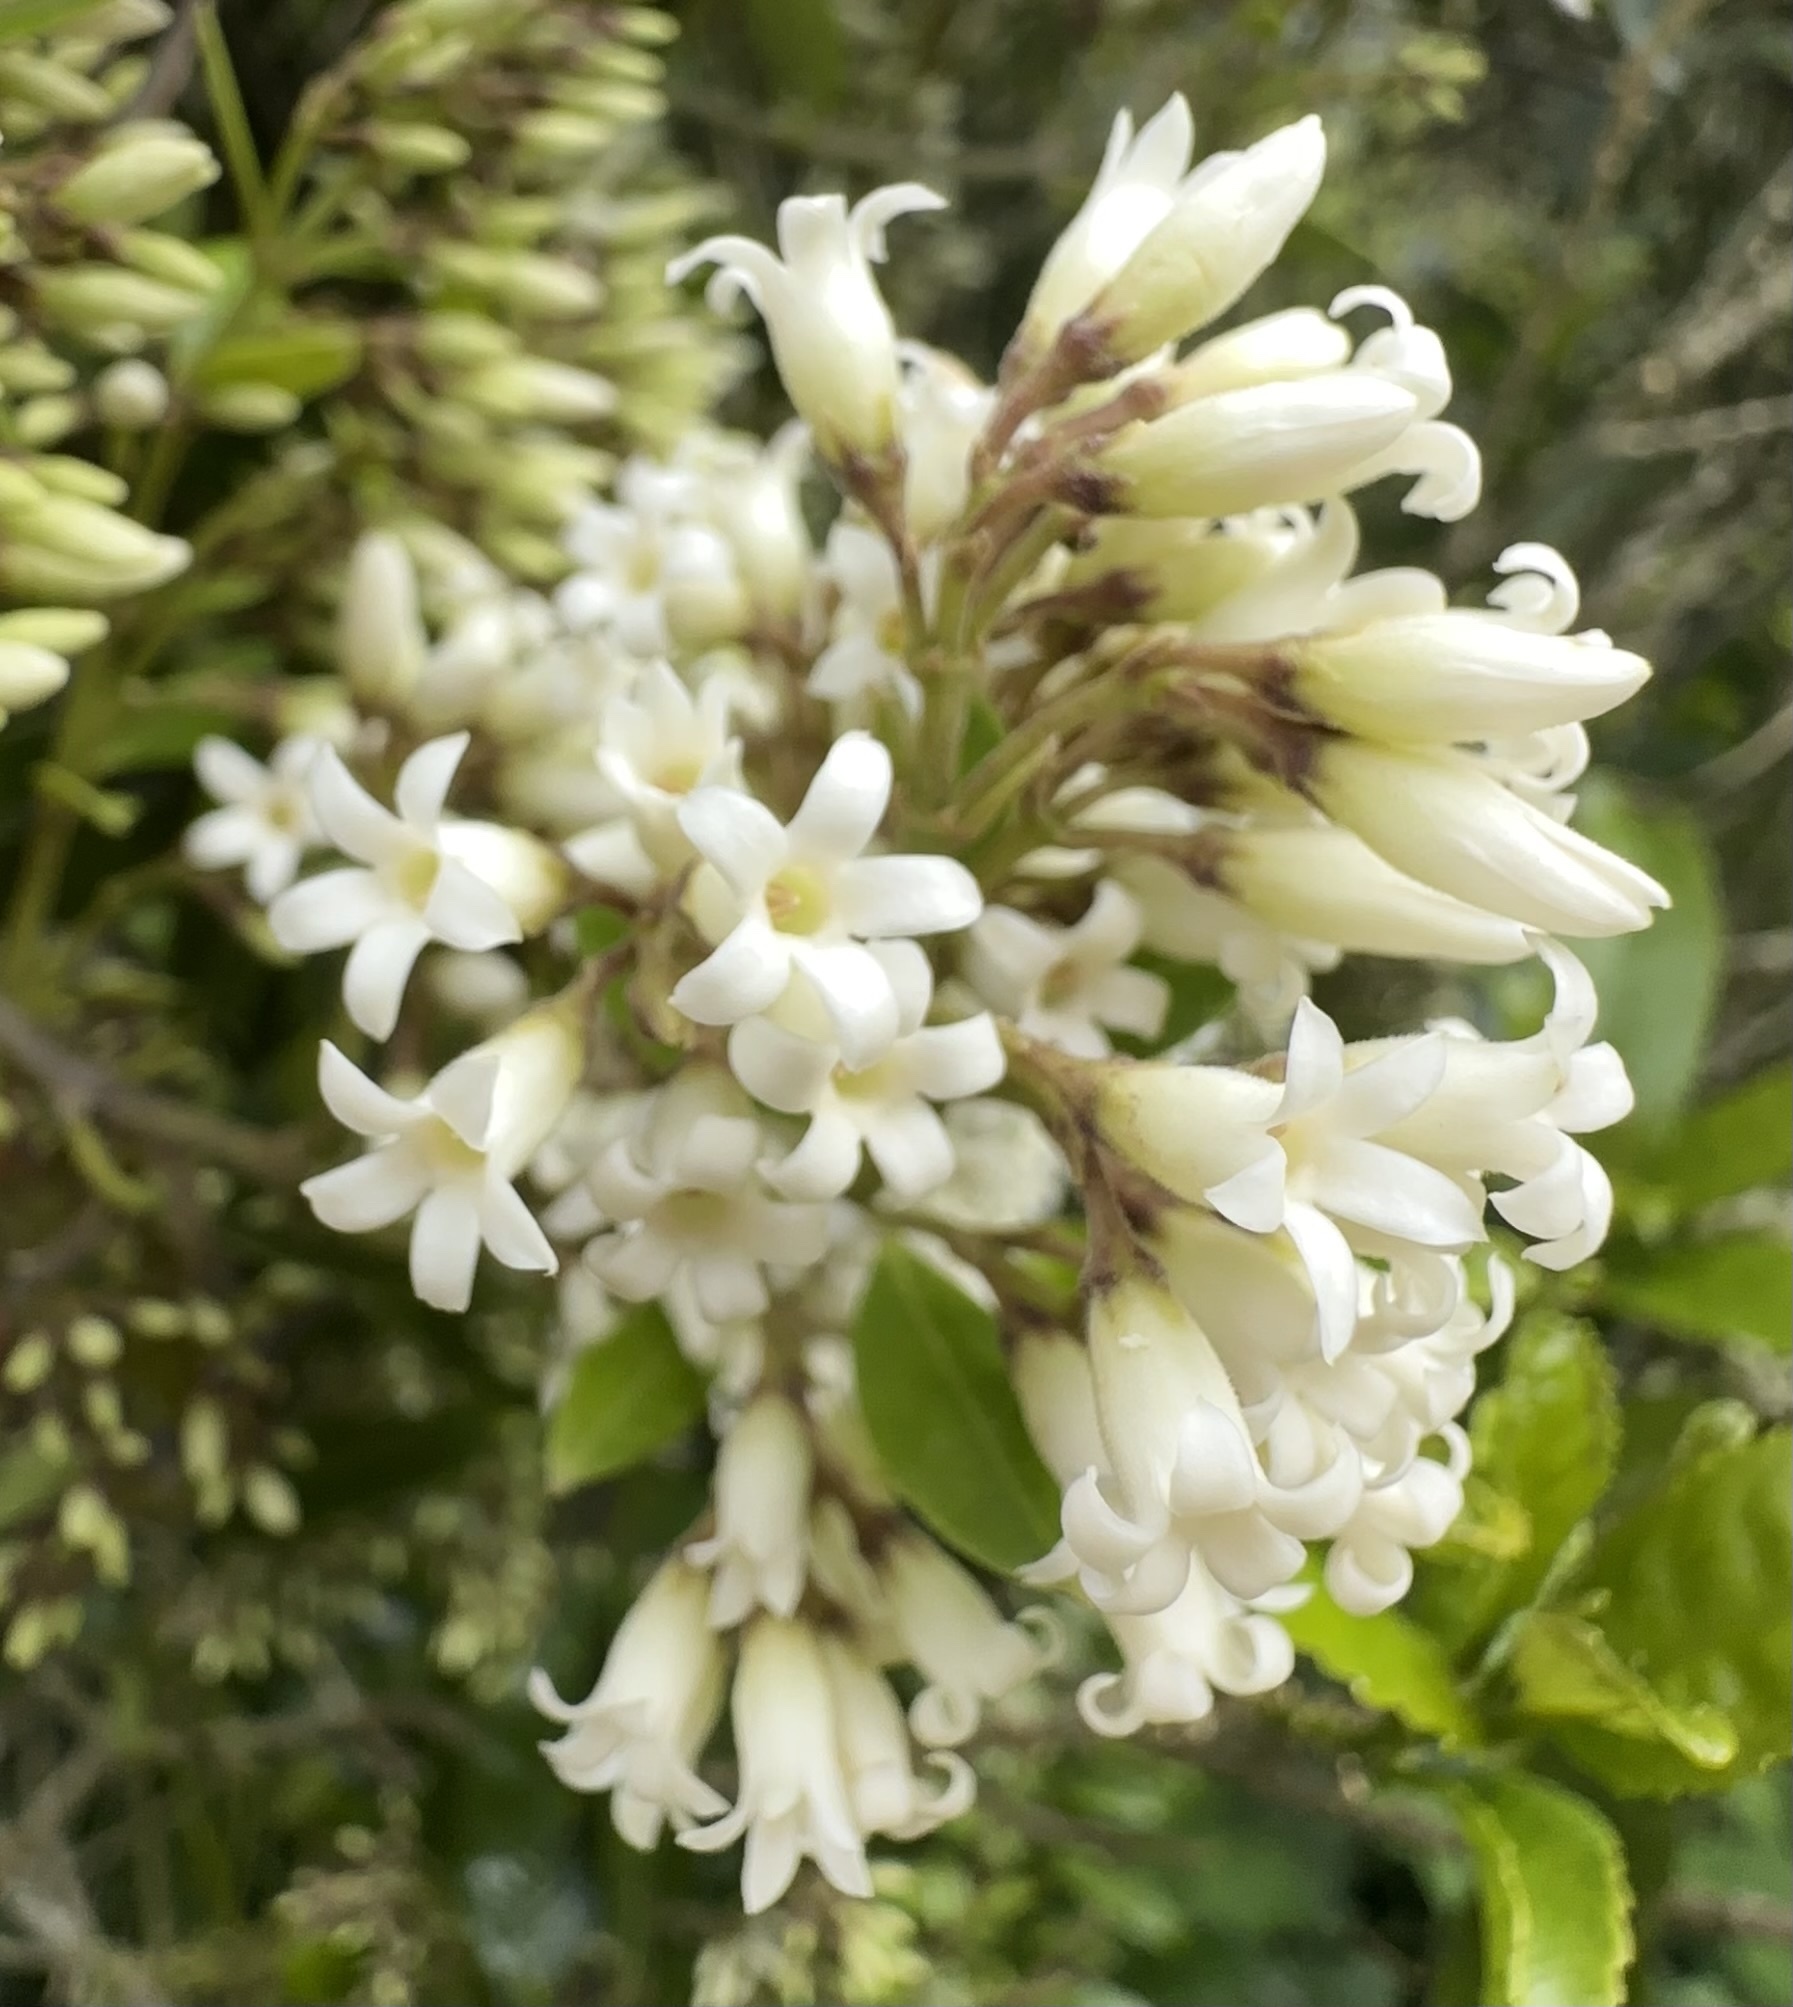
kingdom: Plantae
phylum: Tracheophyta
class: Magnoliopsida
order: Gentianales
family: Apocynaceae
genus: Parsonsia
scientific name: Parsonsia heterophylla
